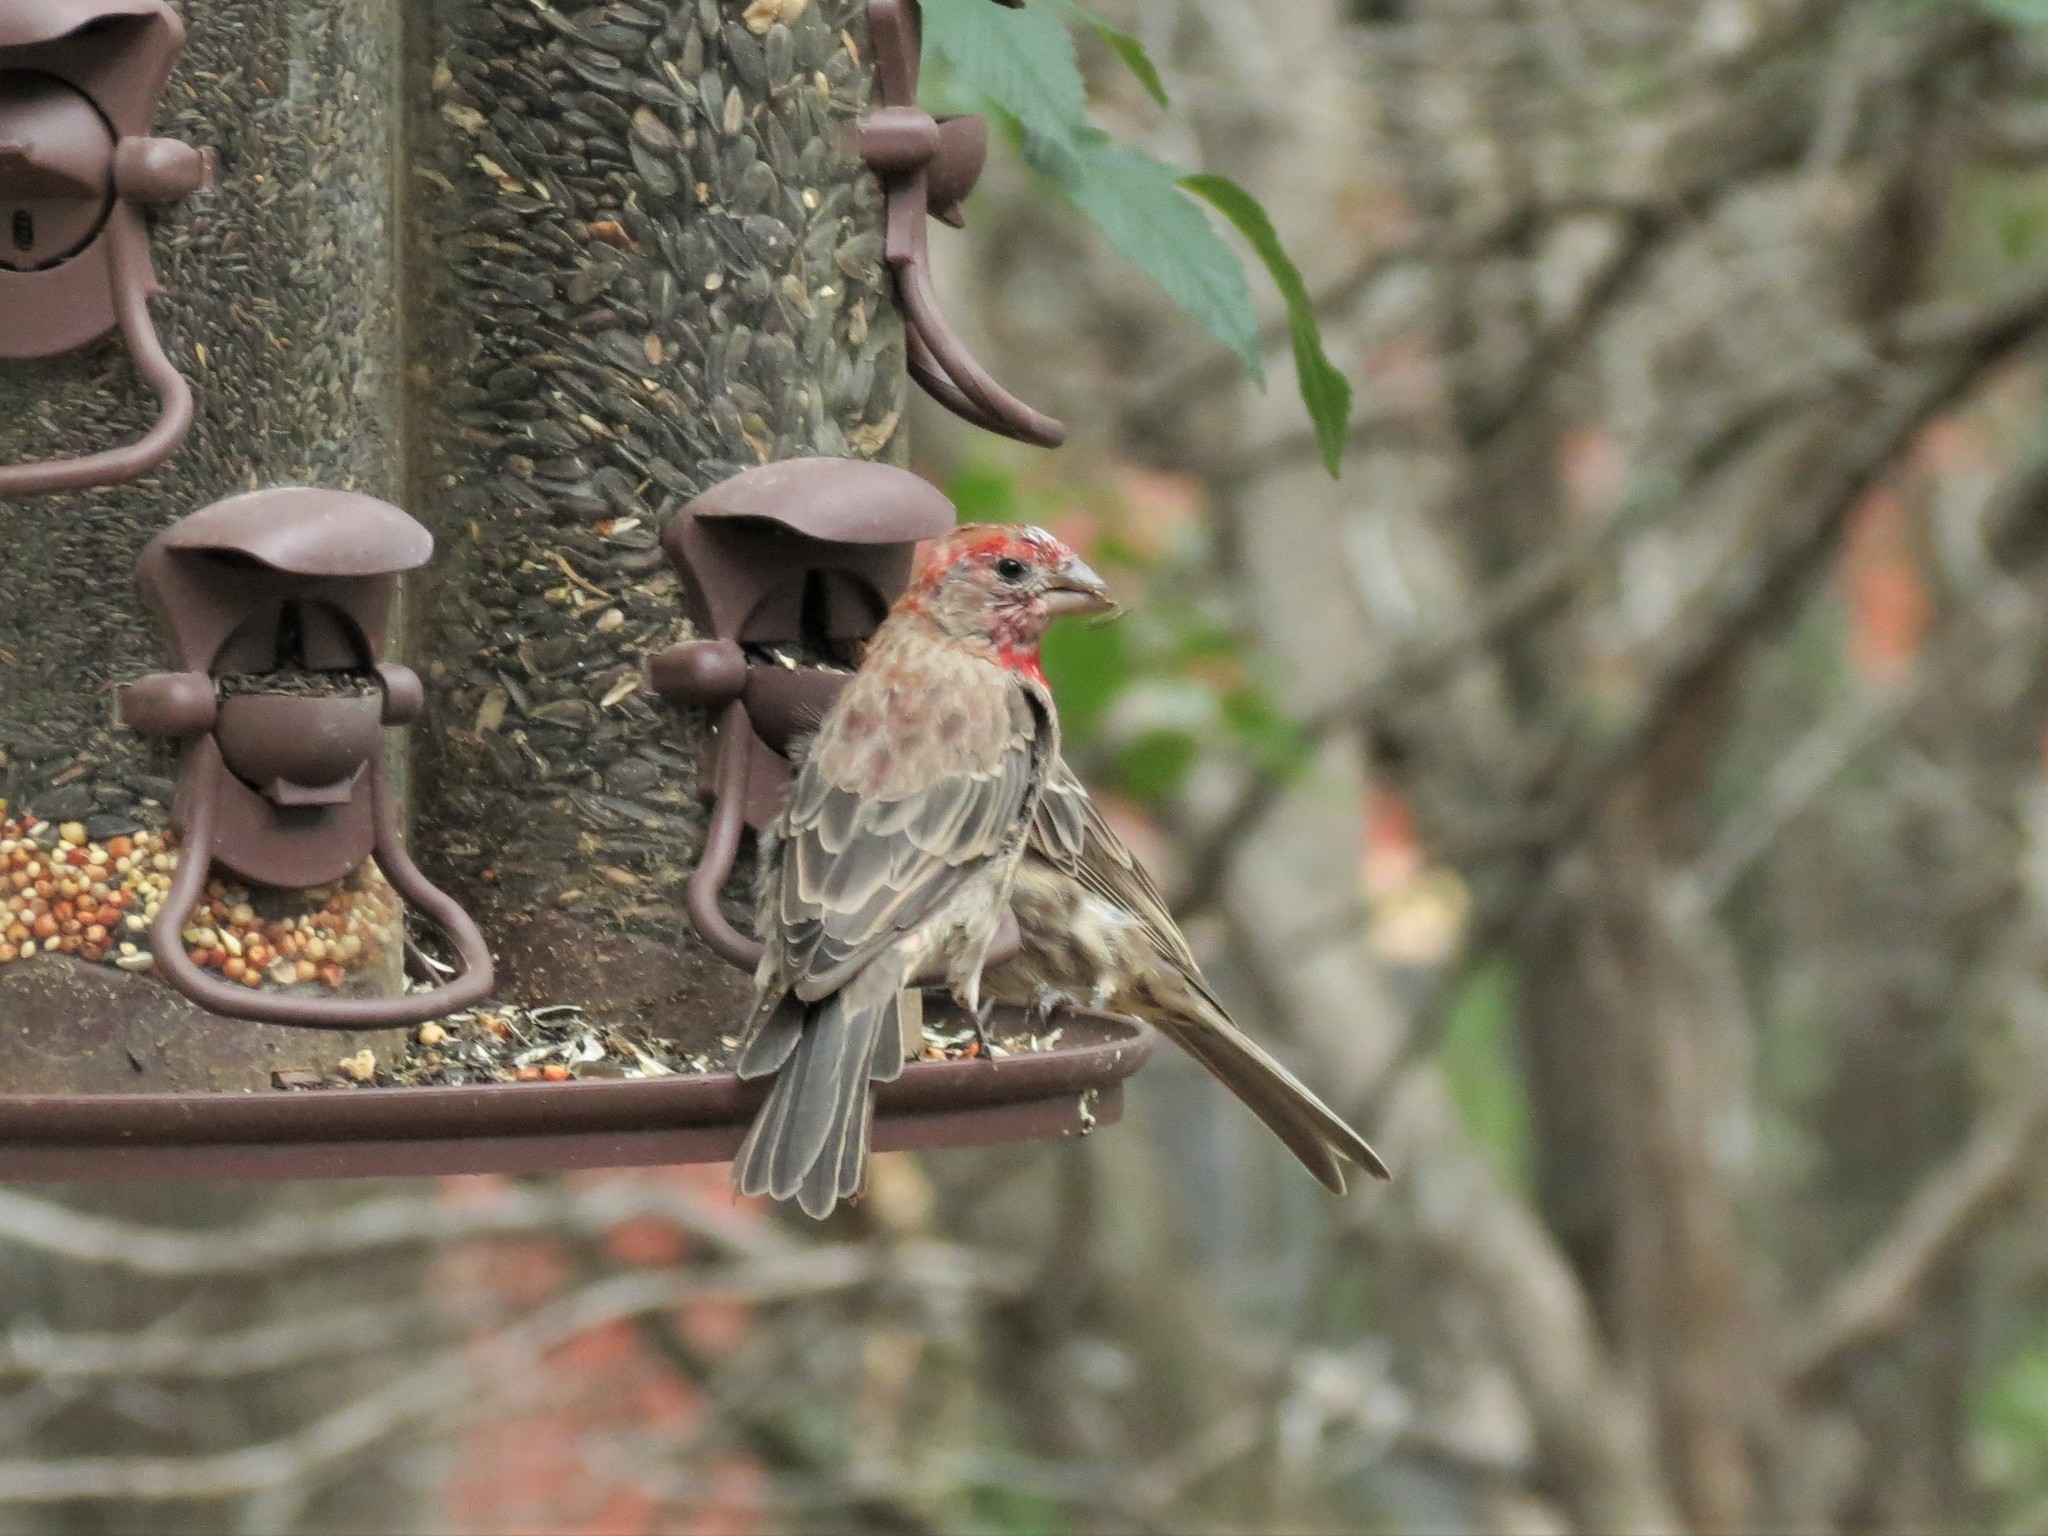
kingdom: Animalia
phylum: Chordata
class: Aves
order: Passeriformes
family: Fringillidae
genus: Haemorhous
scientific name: Haemorhous mexicanus
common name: House finch
